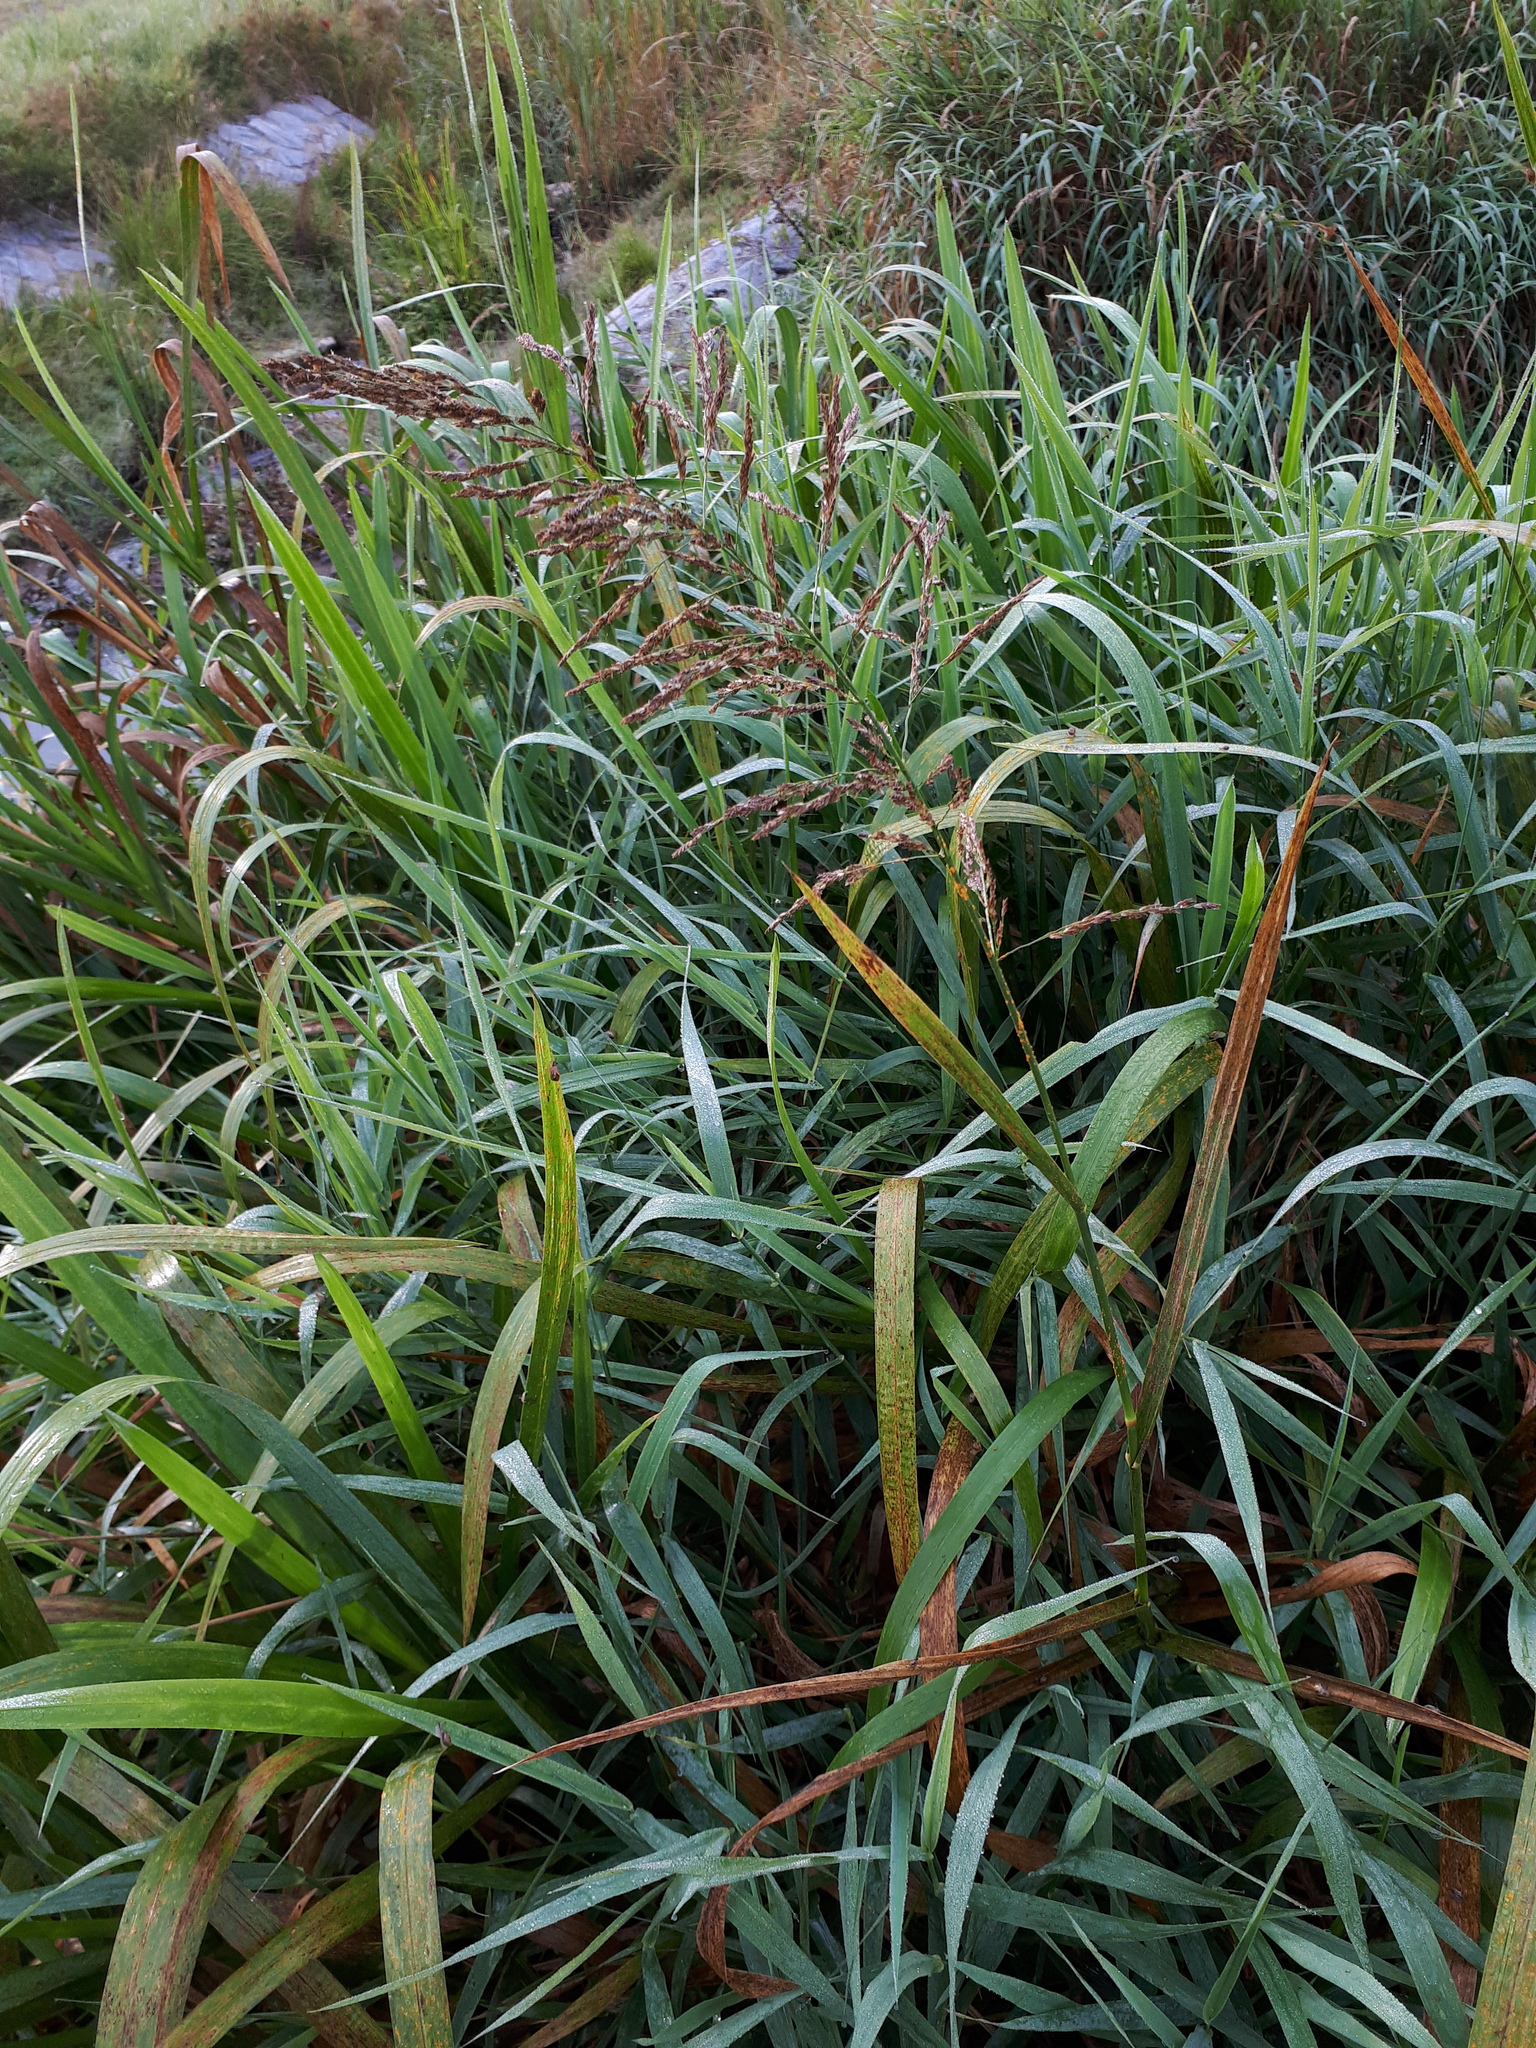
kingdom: Plantae
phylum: Tracheophyta
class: Liliopsida
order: Poales
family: Poaceae
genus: Glyceria
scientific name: Glyceria maxima
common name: Reed mannagrass
